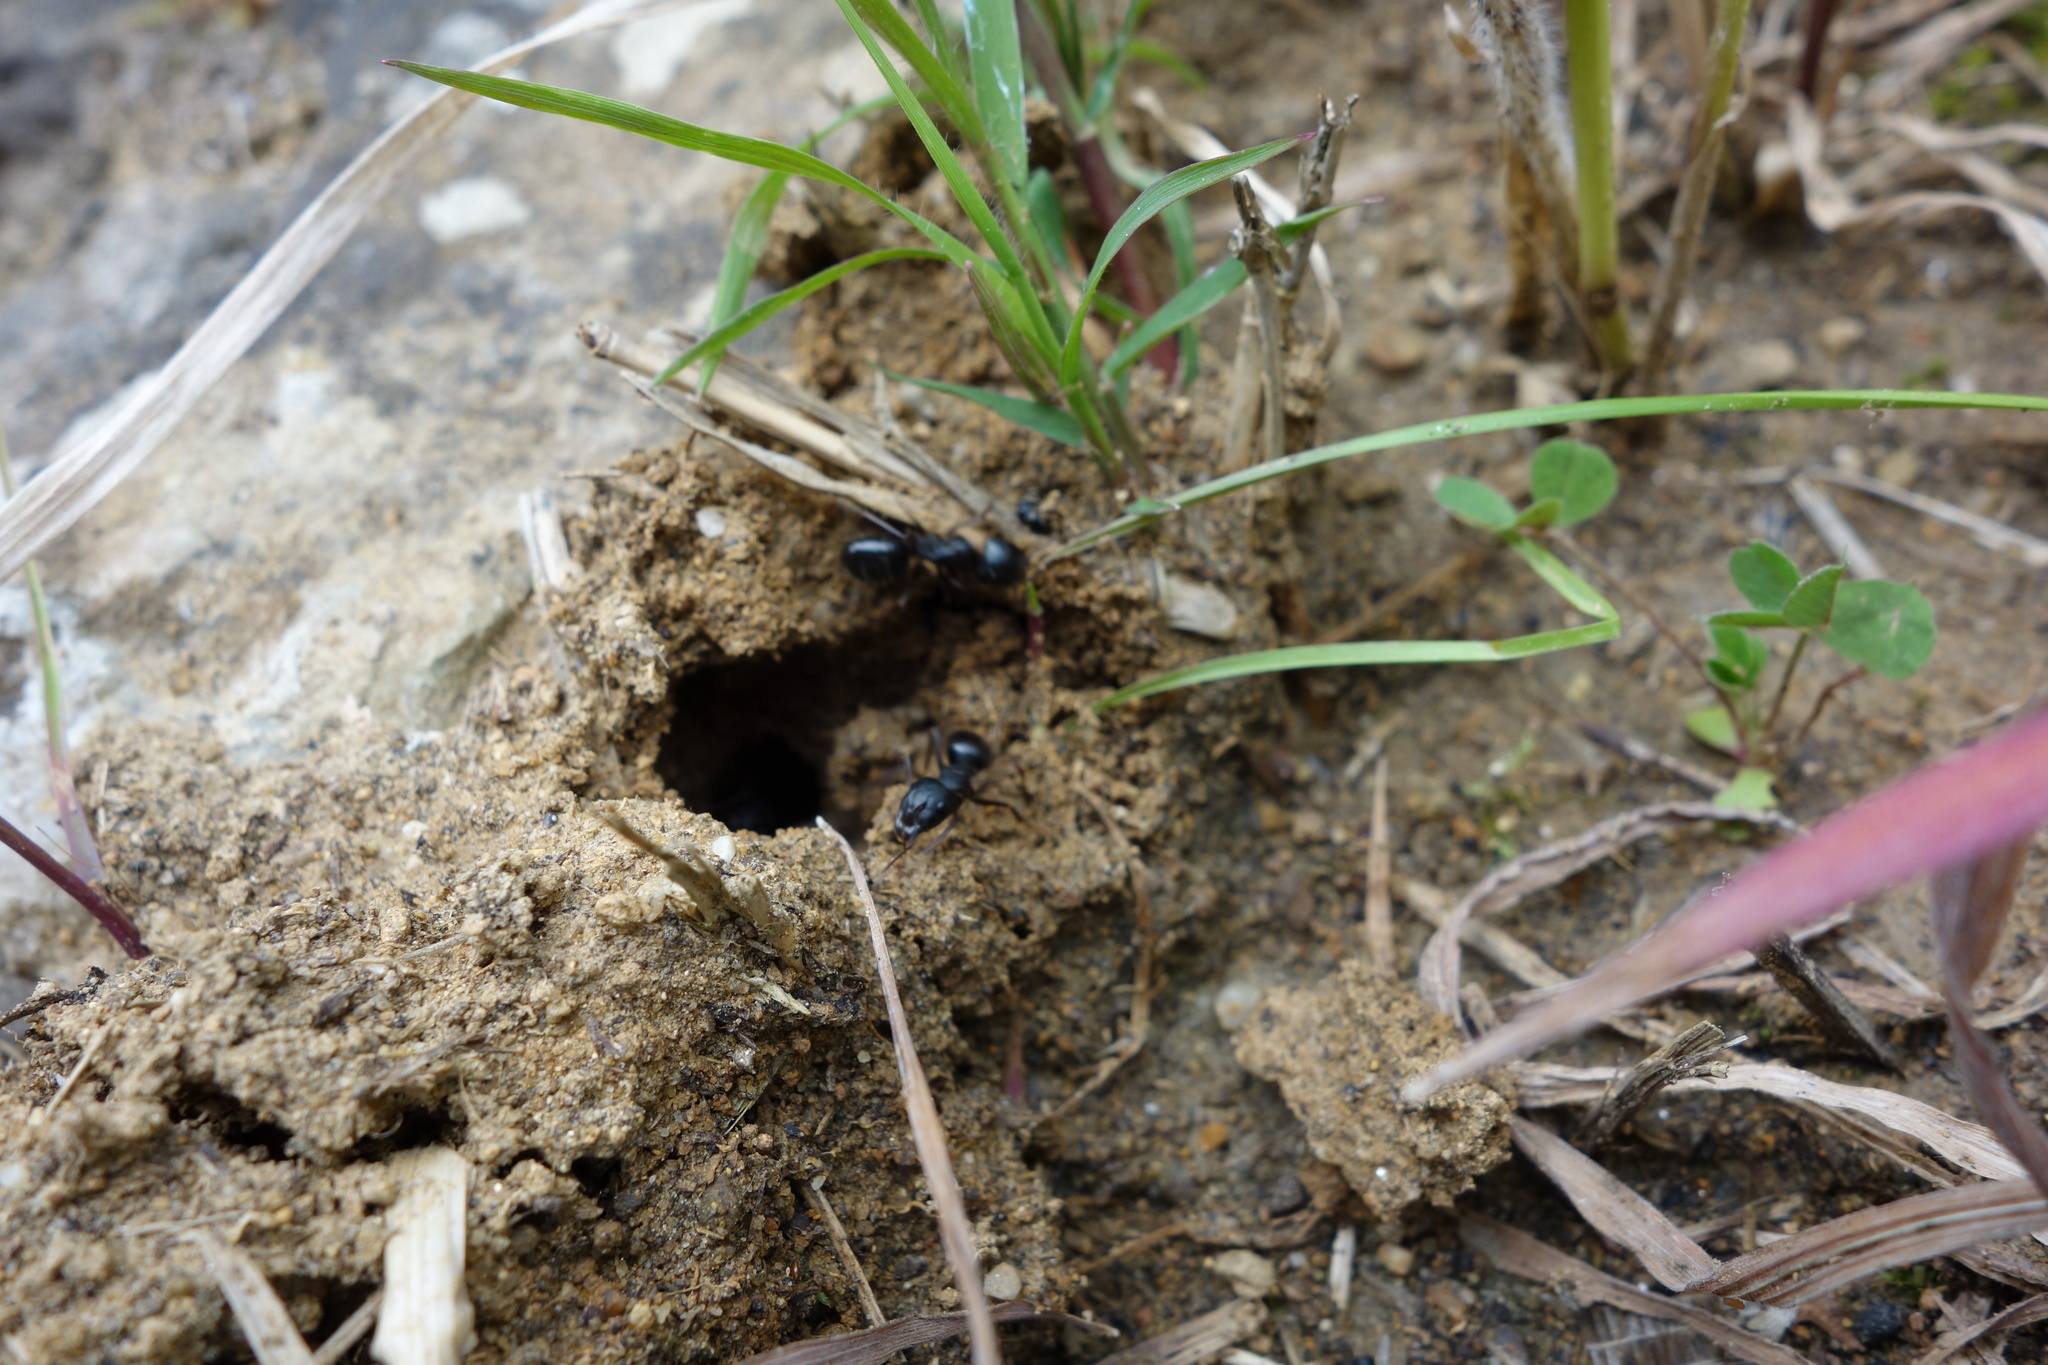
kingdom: Animalia
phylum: Arthropoda
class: Insecta
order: Hymenoptera
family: Formicidae
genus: Camponotus
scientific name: Camponotus aethiops
